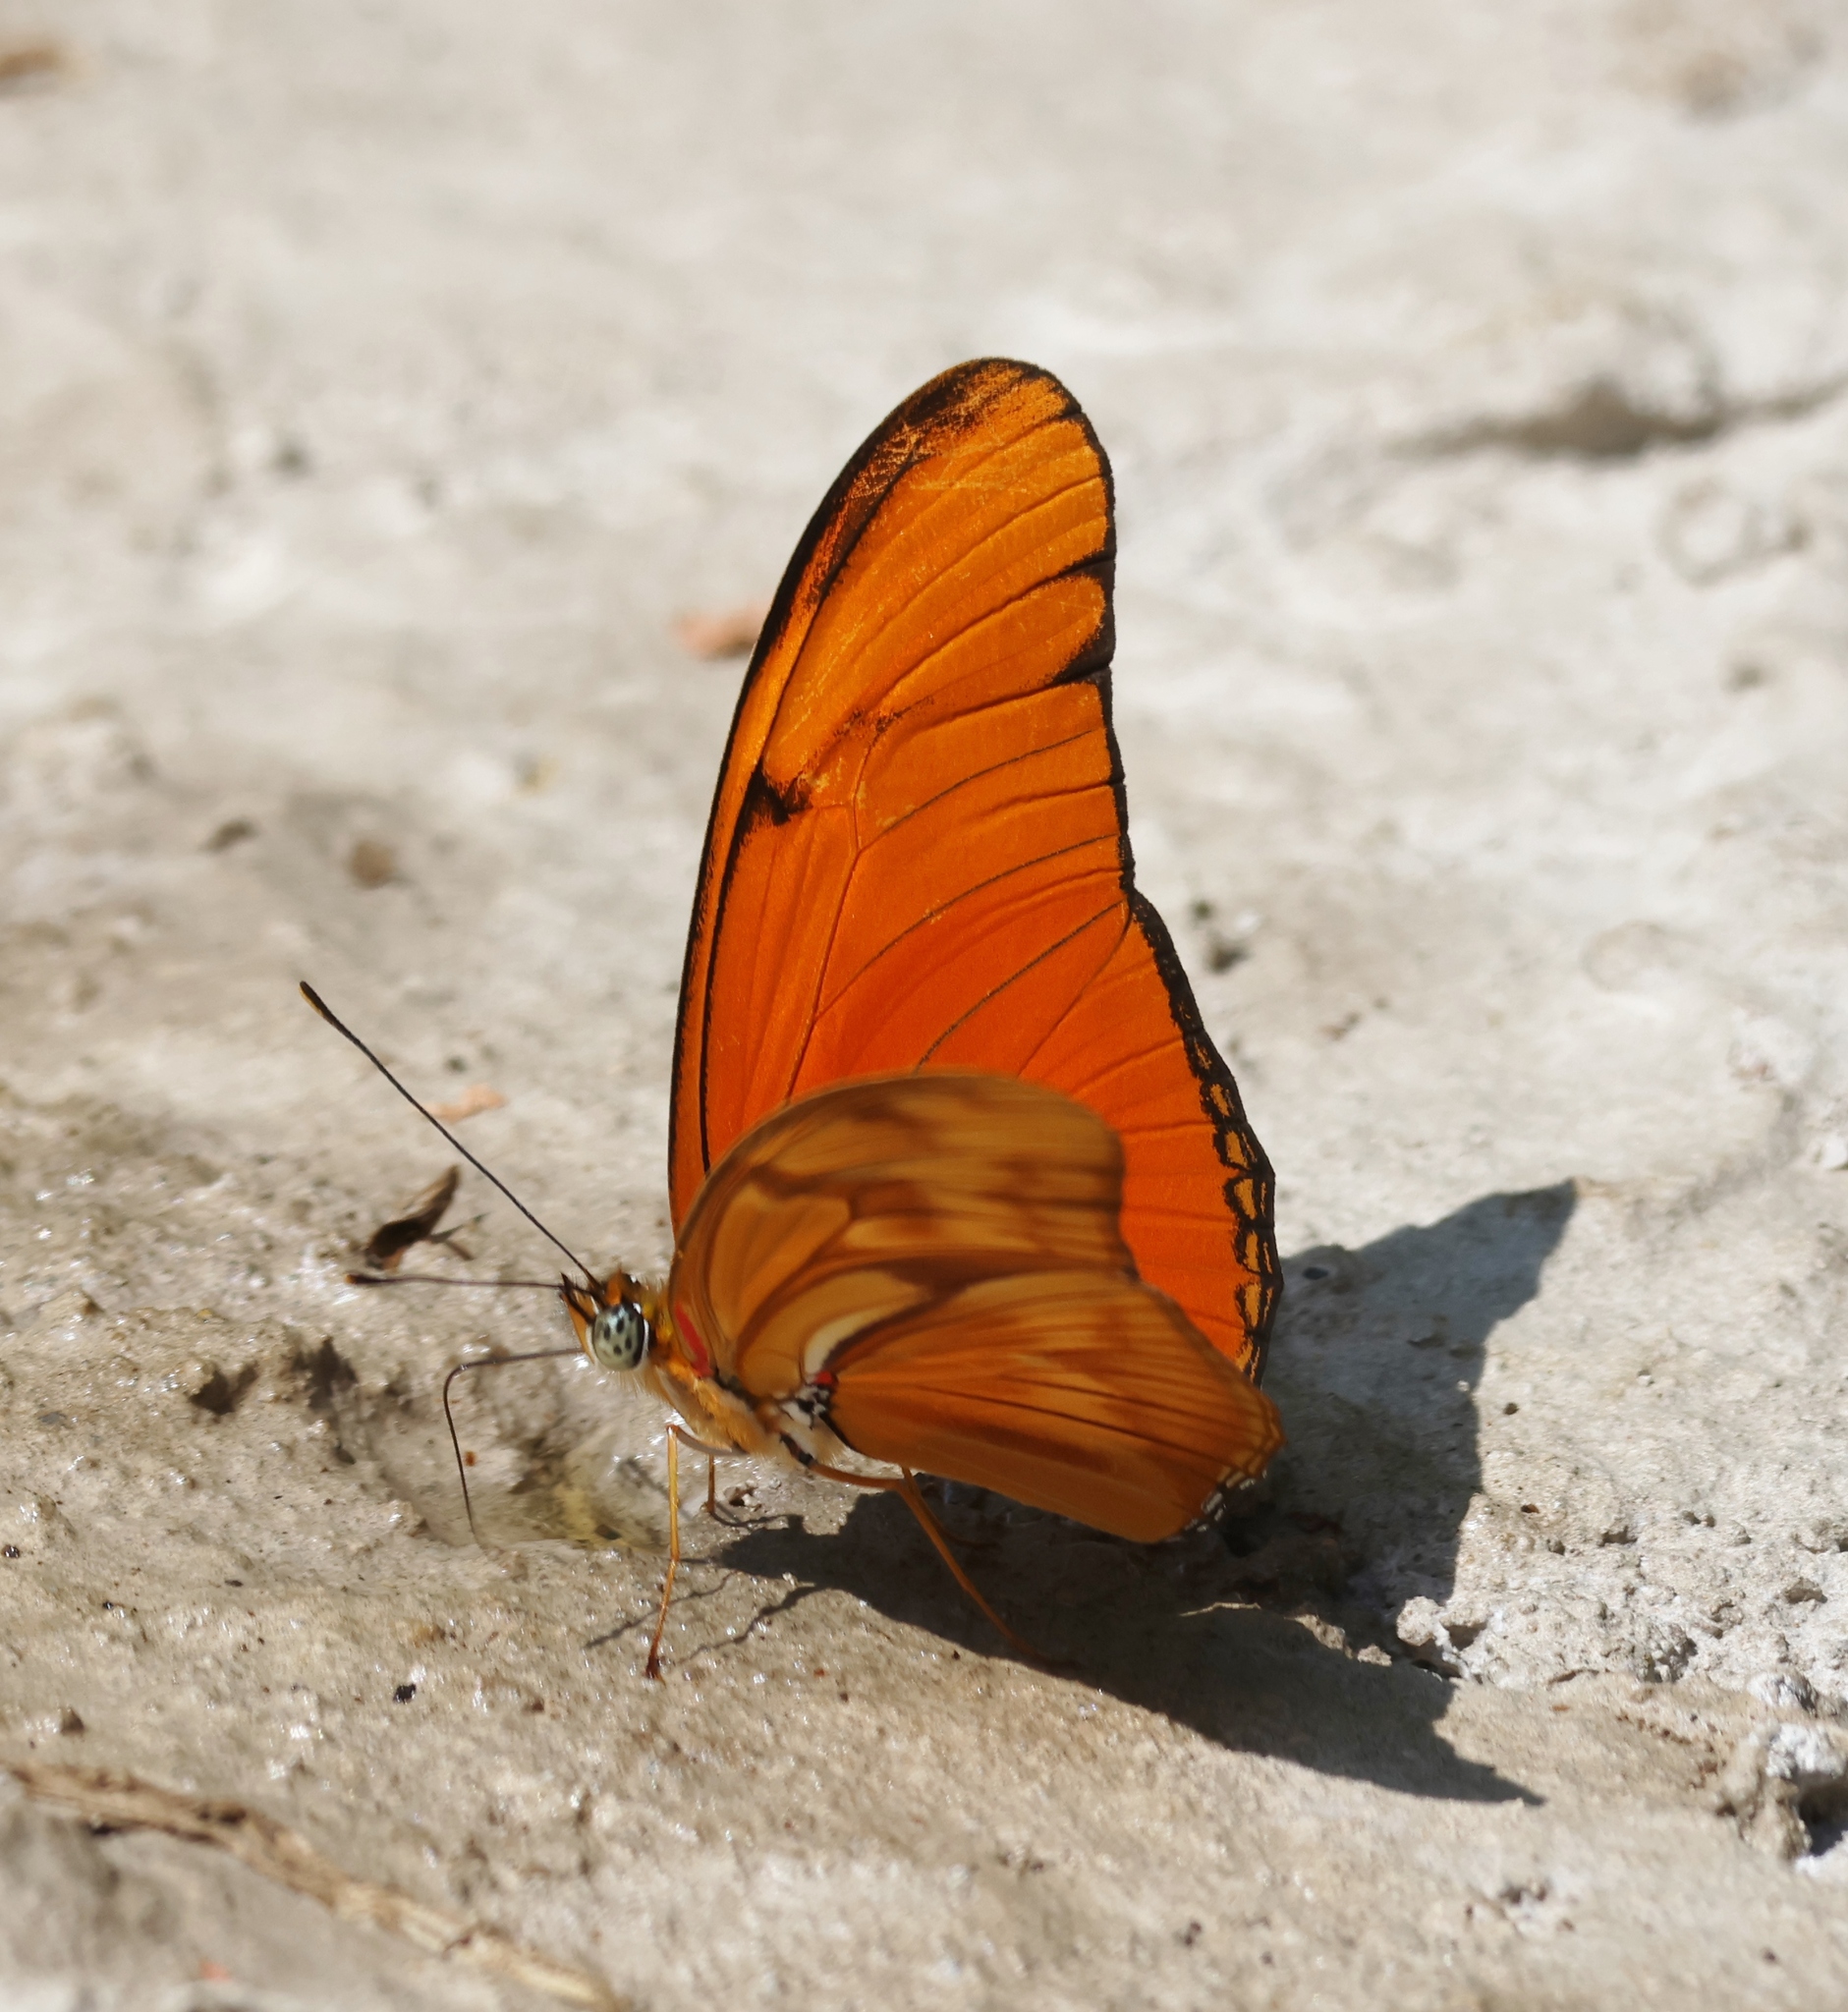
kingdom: Animalia
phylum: Arthropoda
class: Insecta
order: Lepidoptera
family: Nymphalidae
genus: Dryas
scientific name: Dryas iulia
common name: Flambeau
